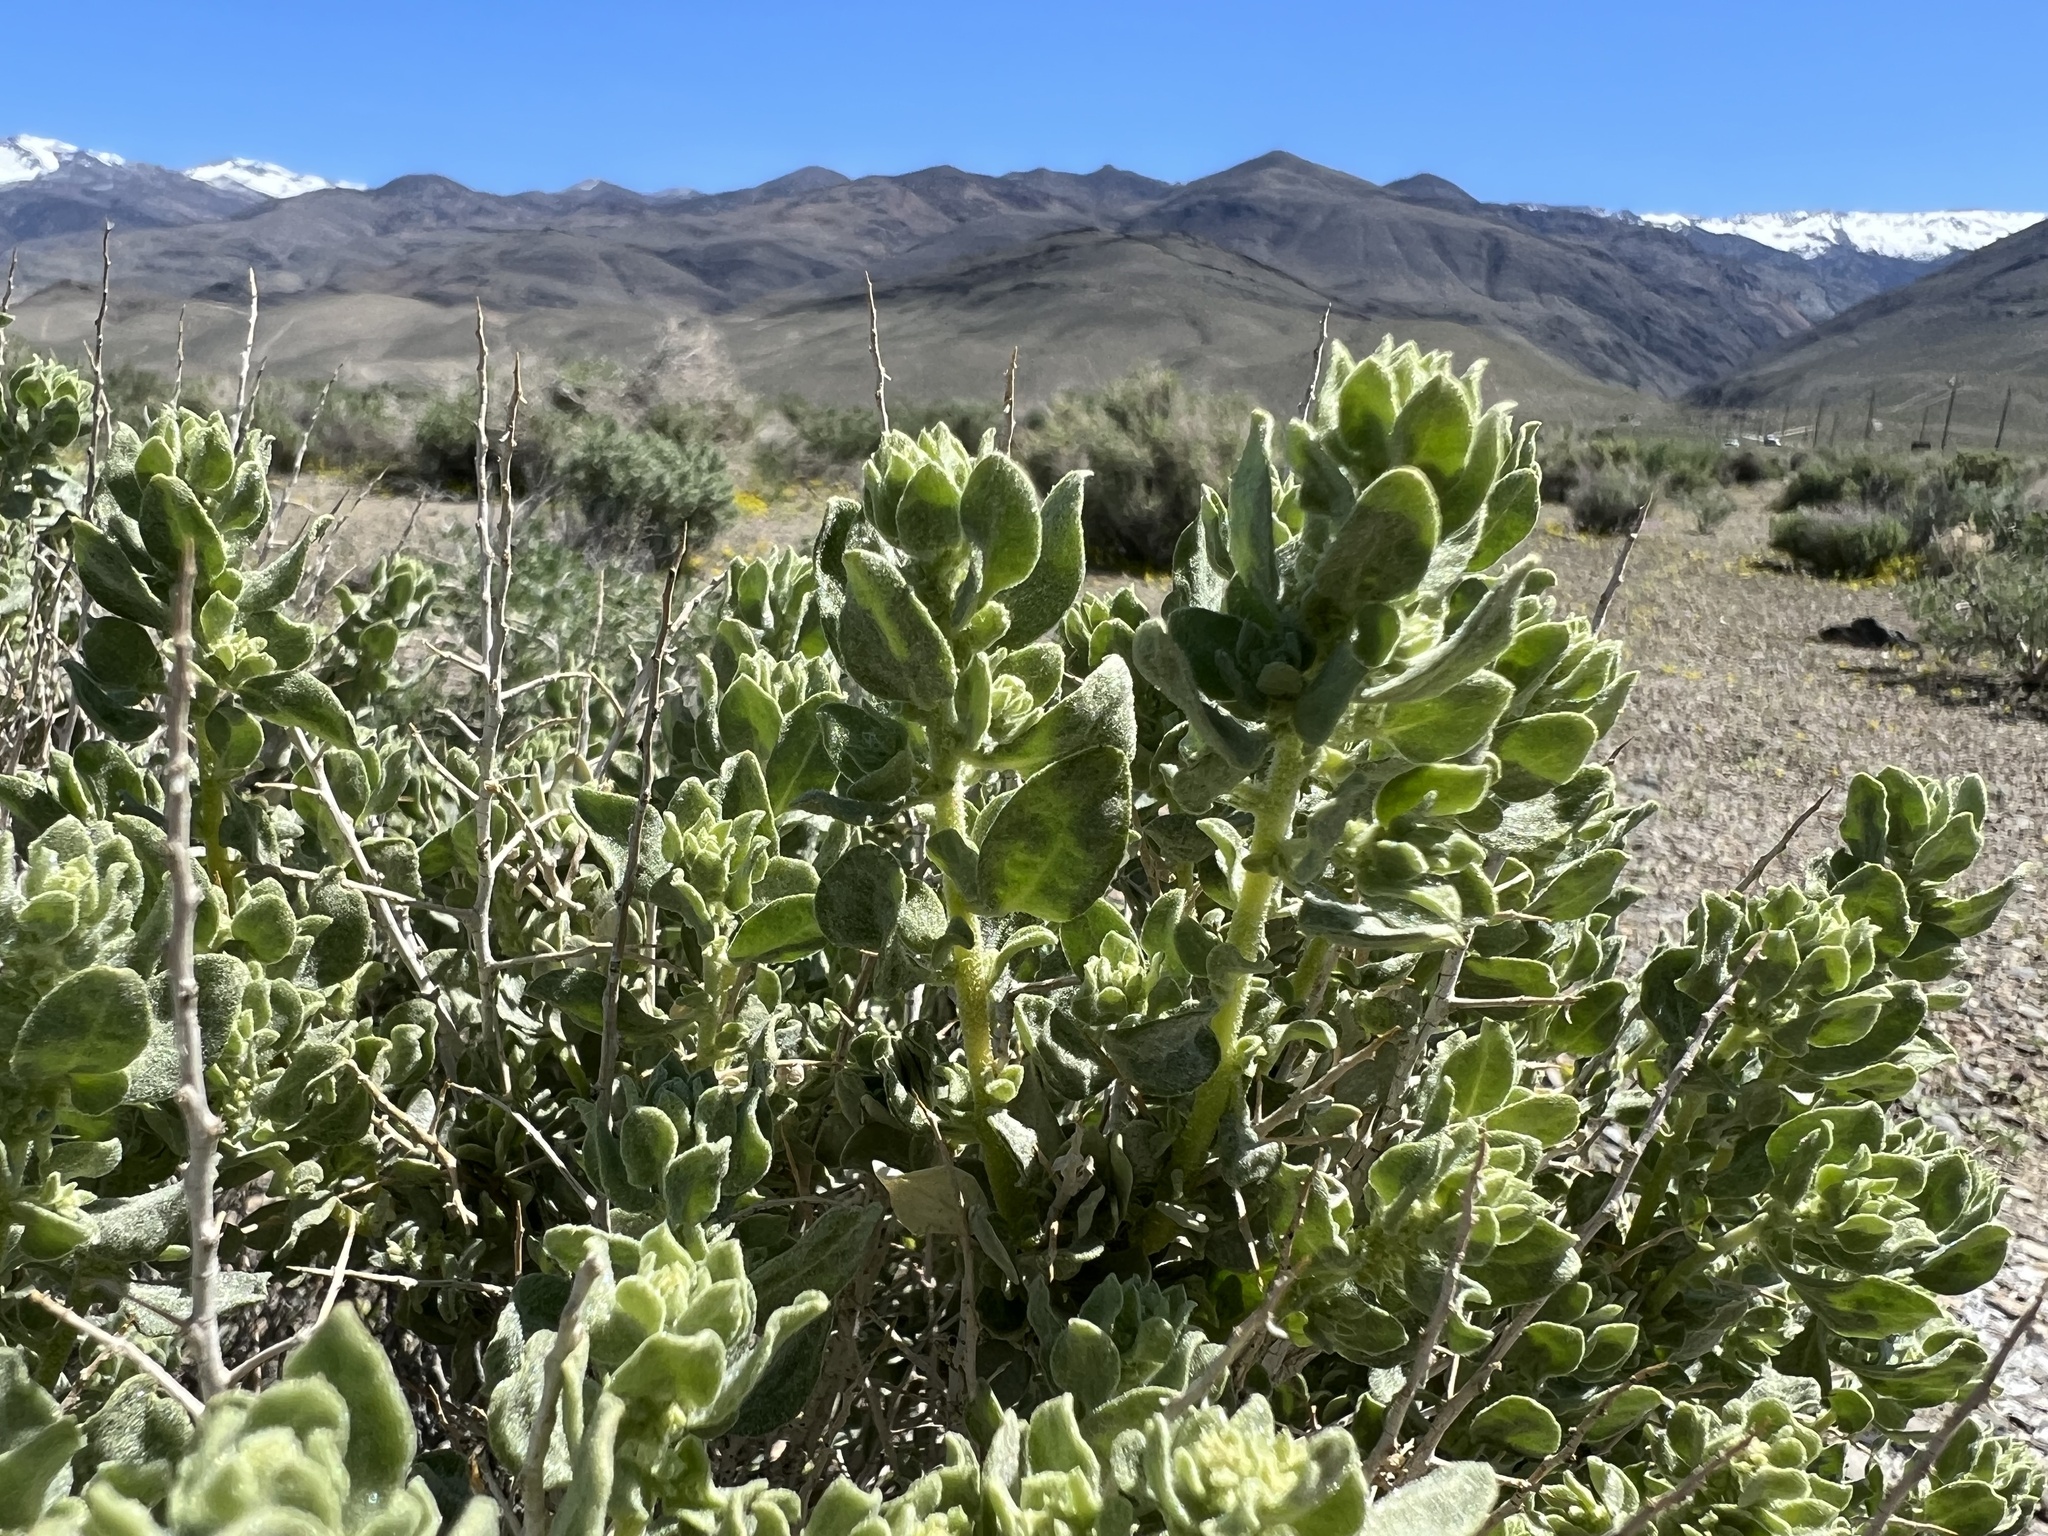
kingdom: Plantae
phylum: Tracheophyta
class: Magnoliopsida
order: Caryophyllales
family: Amaranthaceae
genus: Atriplex
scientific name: Atriplex confertifolia
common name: Shadscale
